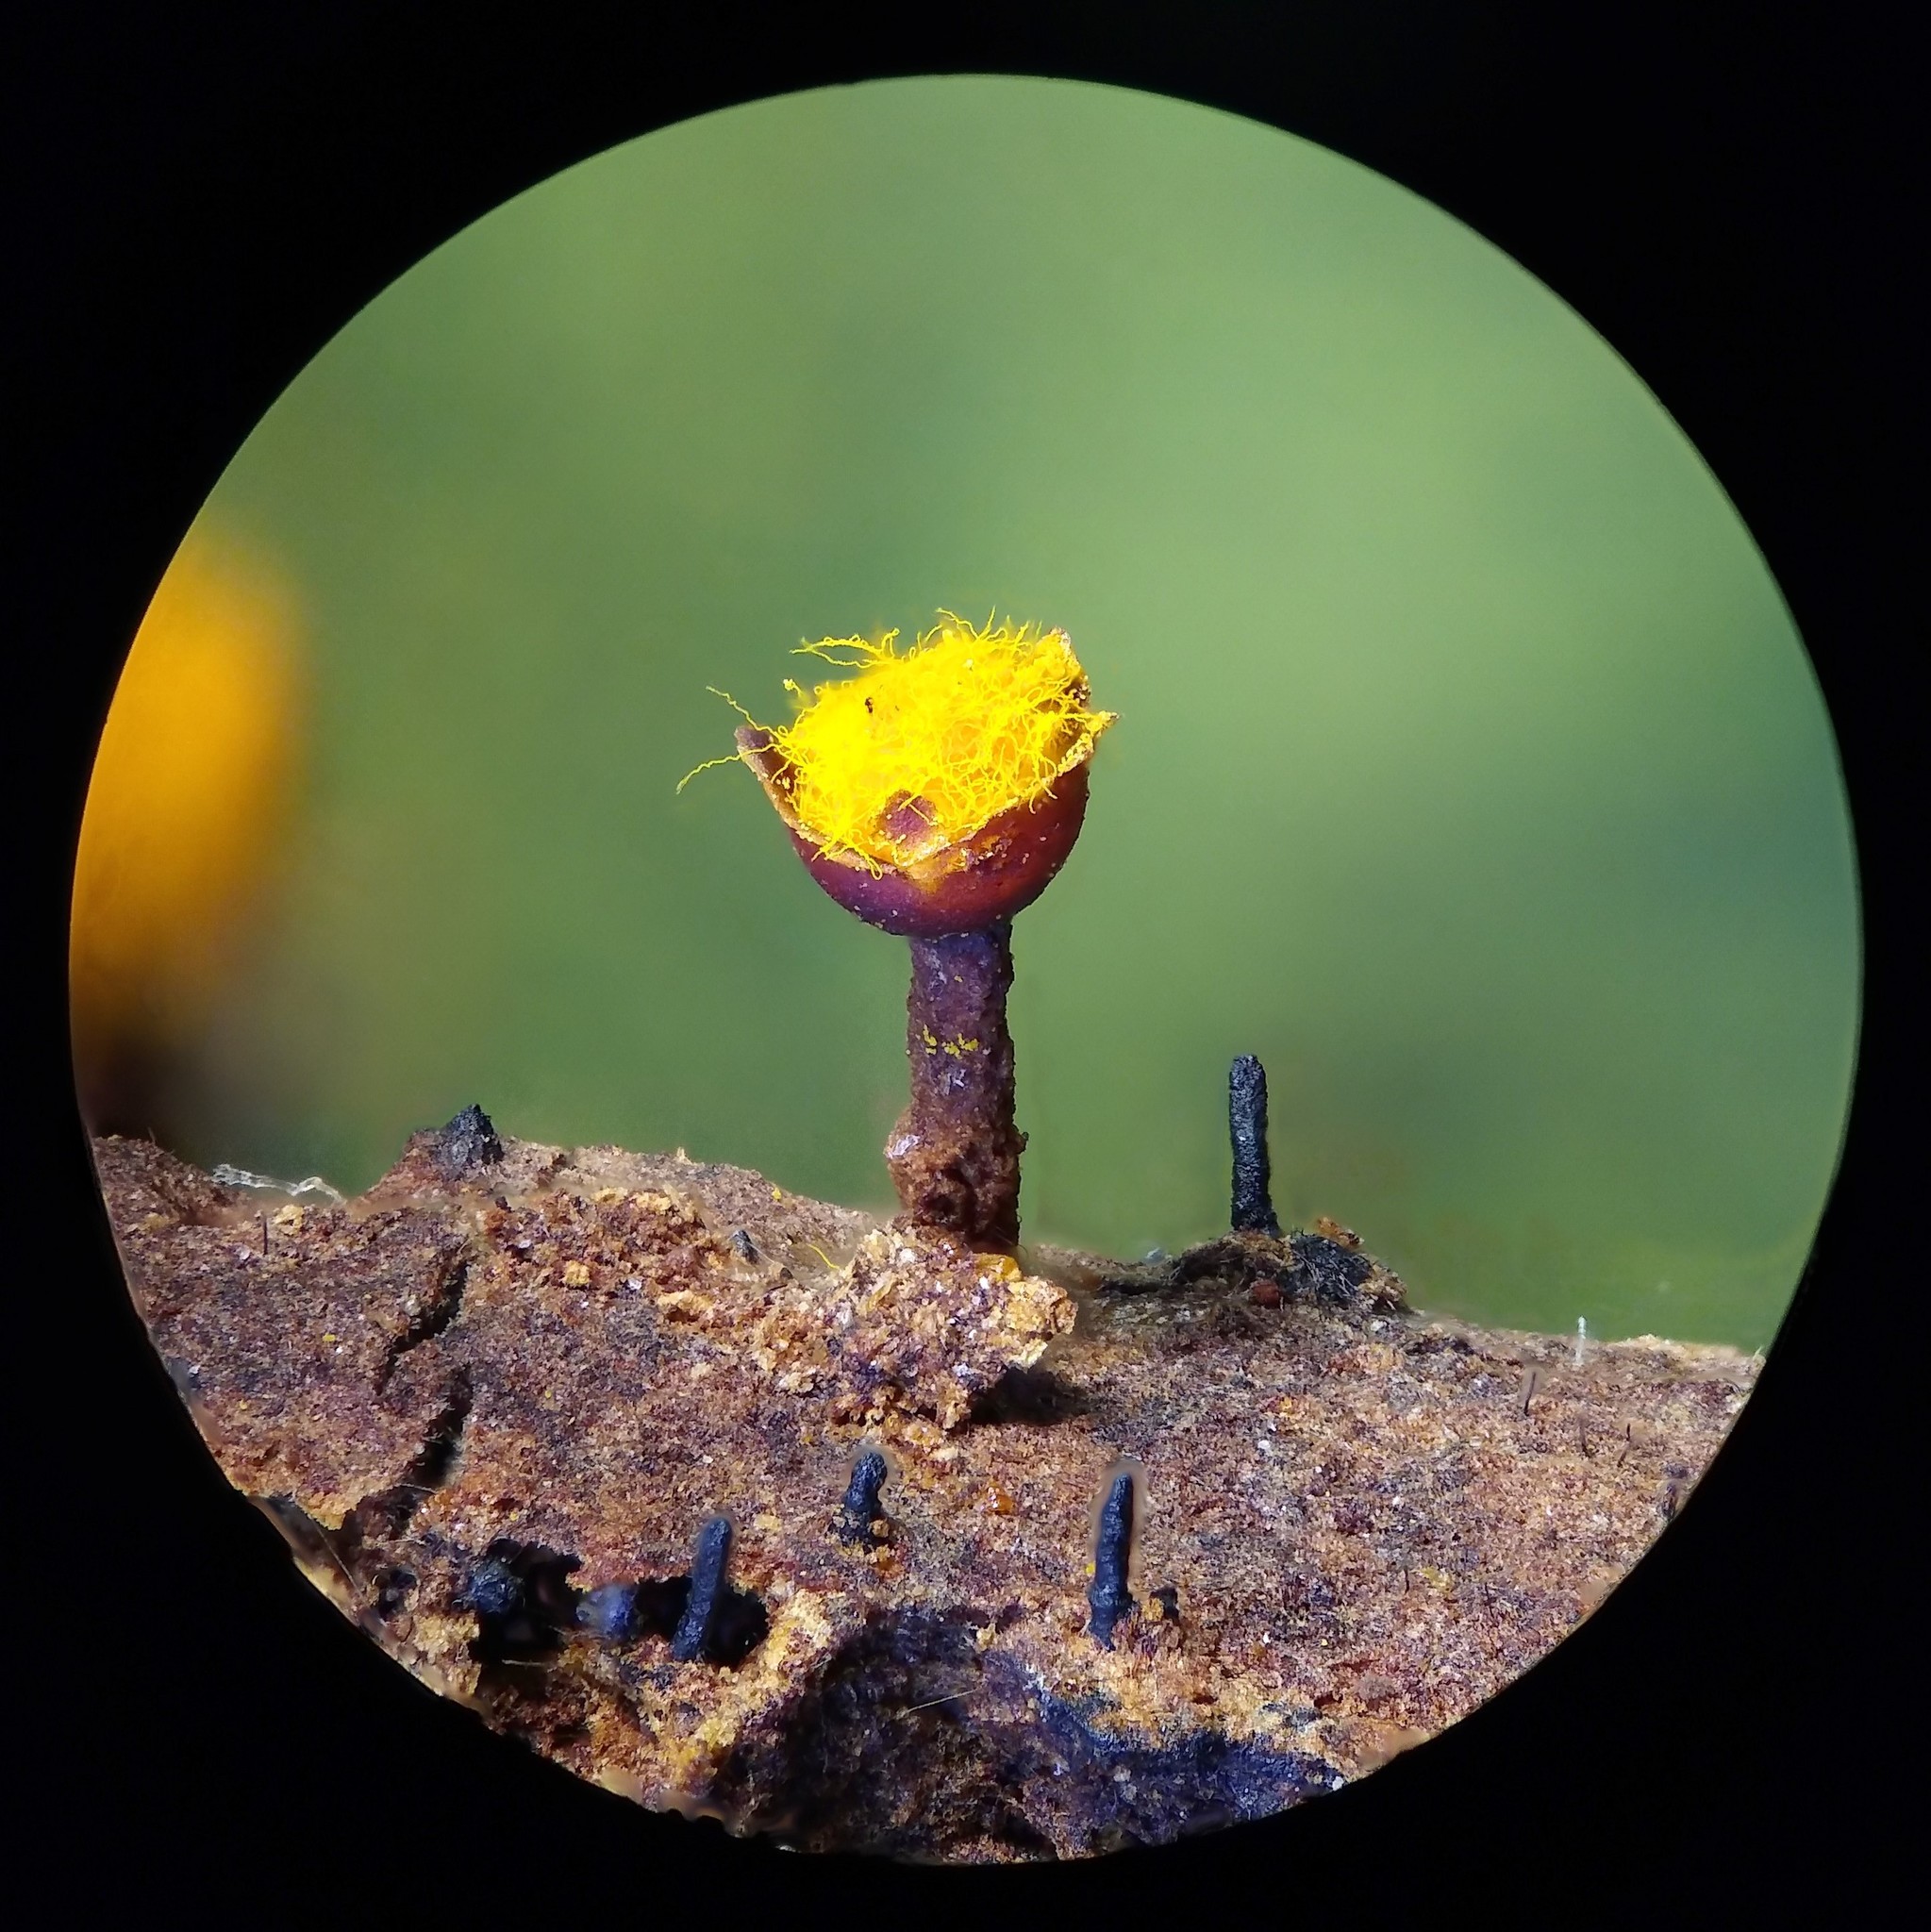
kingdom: Protozoa
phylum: Mycetozoa
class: Myxomycetes
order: Trichiales
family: Trichiaceae
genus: Trichia
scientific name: Trichia erecta
